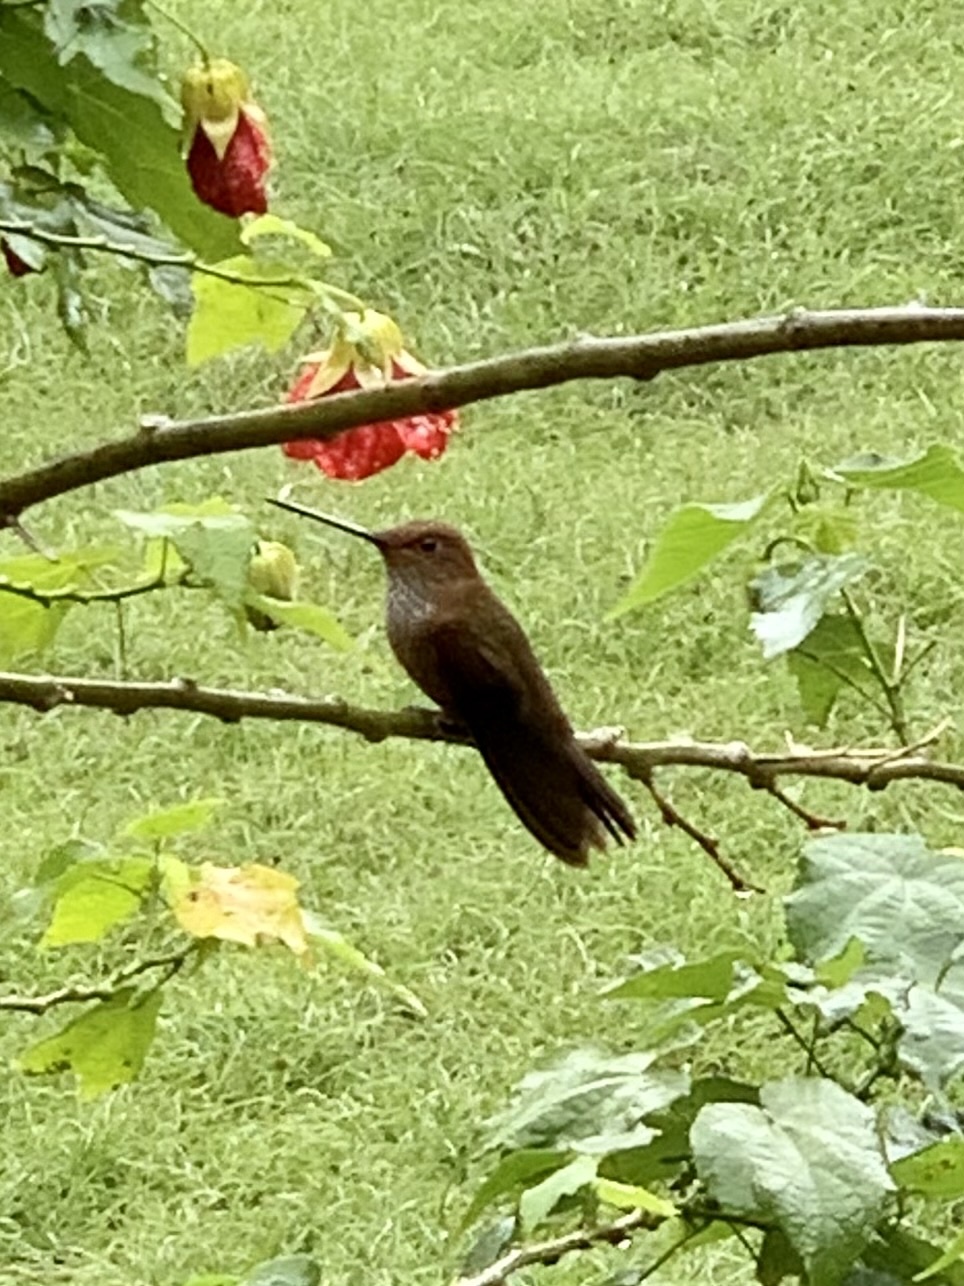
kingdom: Animalia
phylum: Chordata
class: Aves
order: Apodiformes
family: Trochilidae
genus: Coeligena
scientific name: Coeligena coeligena
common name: Bronzy inca
